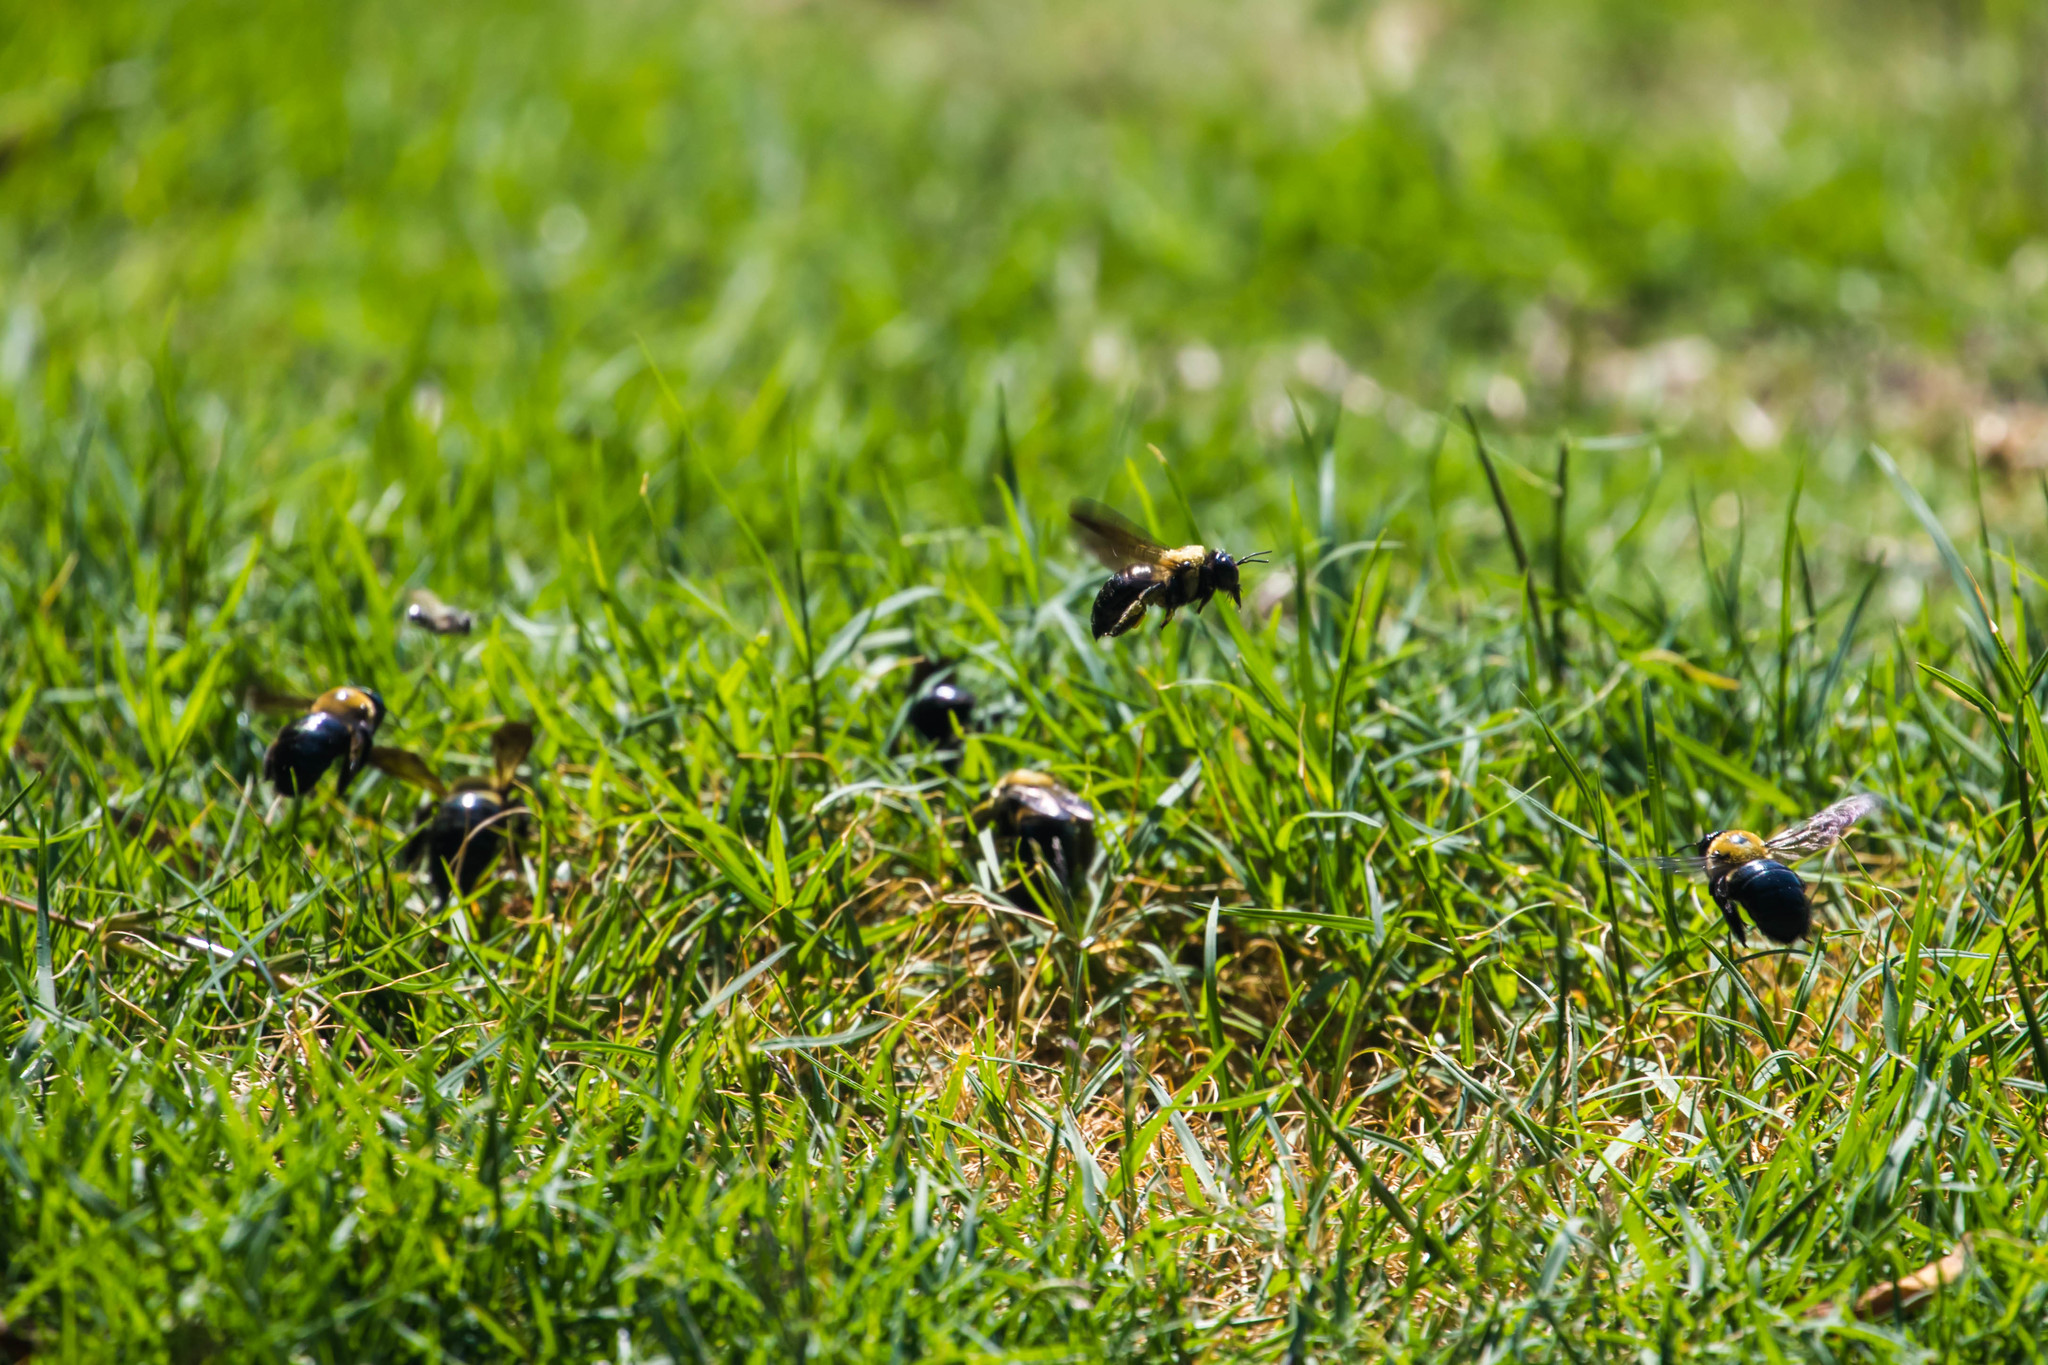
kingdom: Animalia
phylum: Arthropoda
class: Insecta
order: Hymenoptera
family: Apidae
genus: Xylocopa
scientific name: Xylocopa virginica
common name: Carpenter bee
